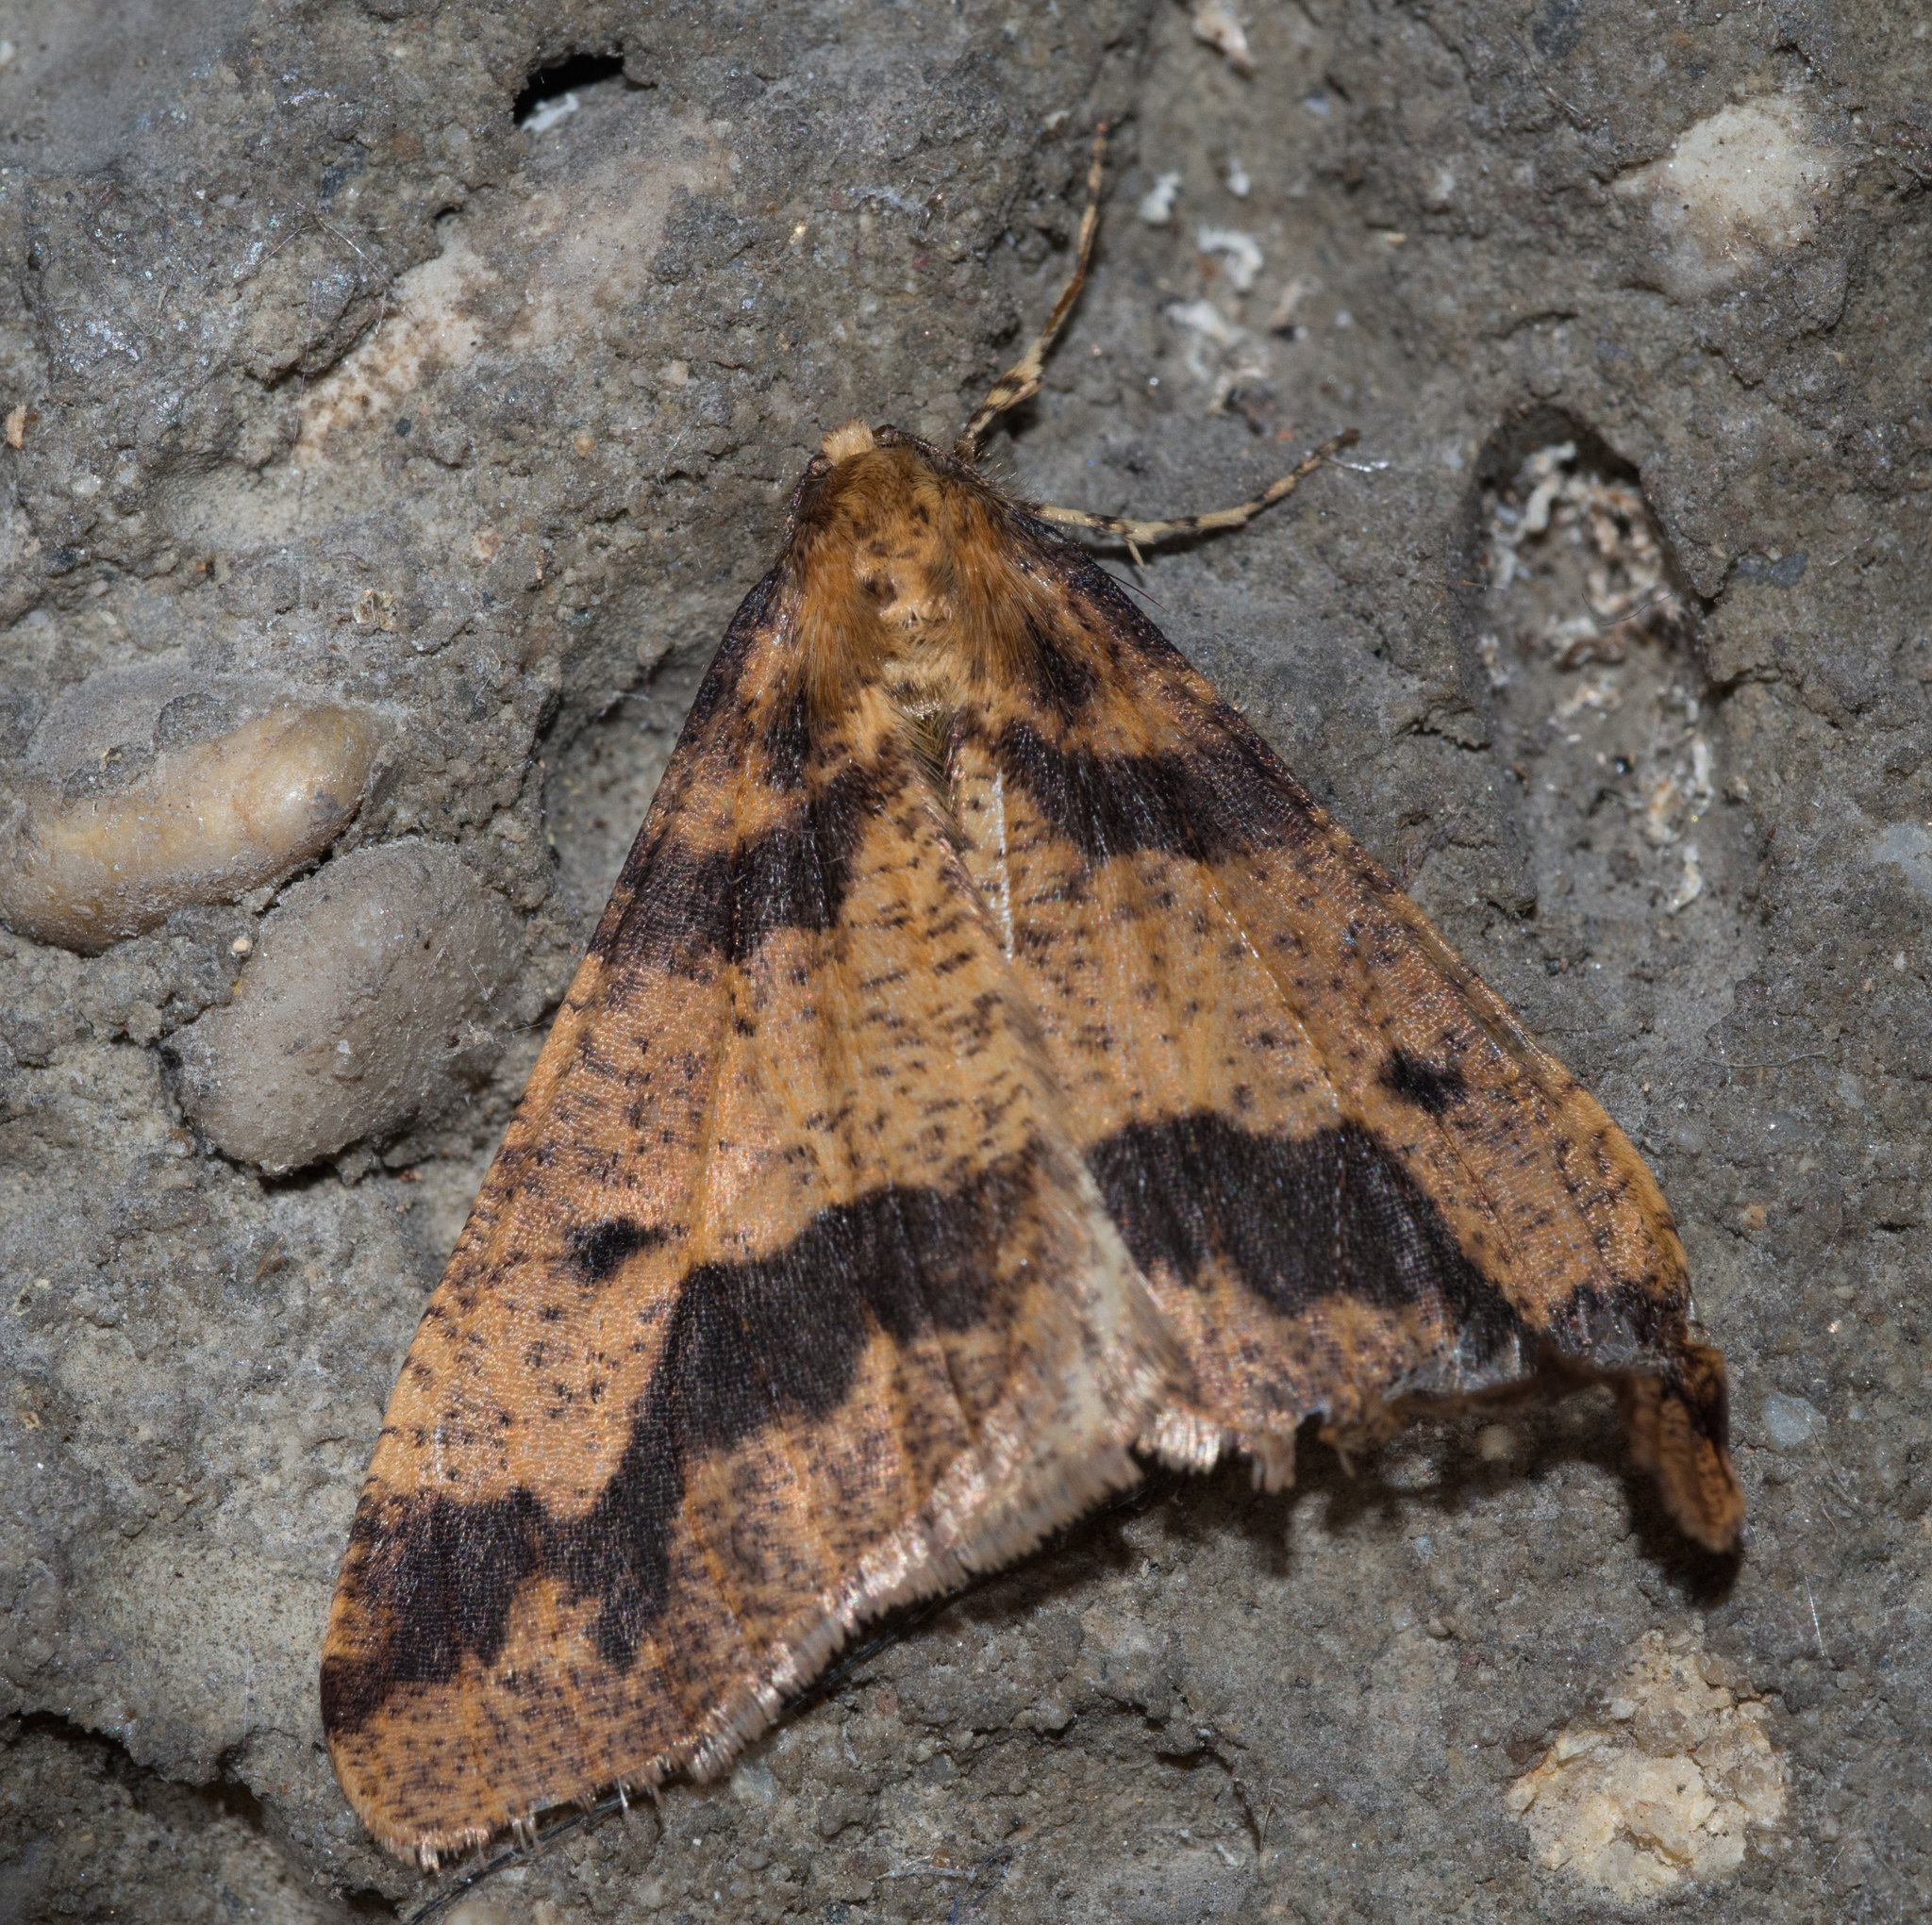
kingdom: Animalia
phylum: Arthropoda
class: Insecta
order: Lepidoptera
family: Geometridae
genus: Erannis
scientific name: Erannis defoliaria
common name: Mottled umber
